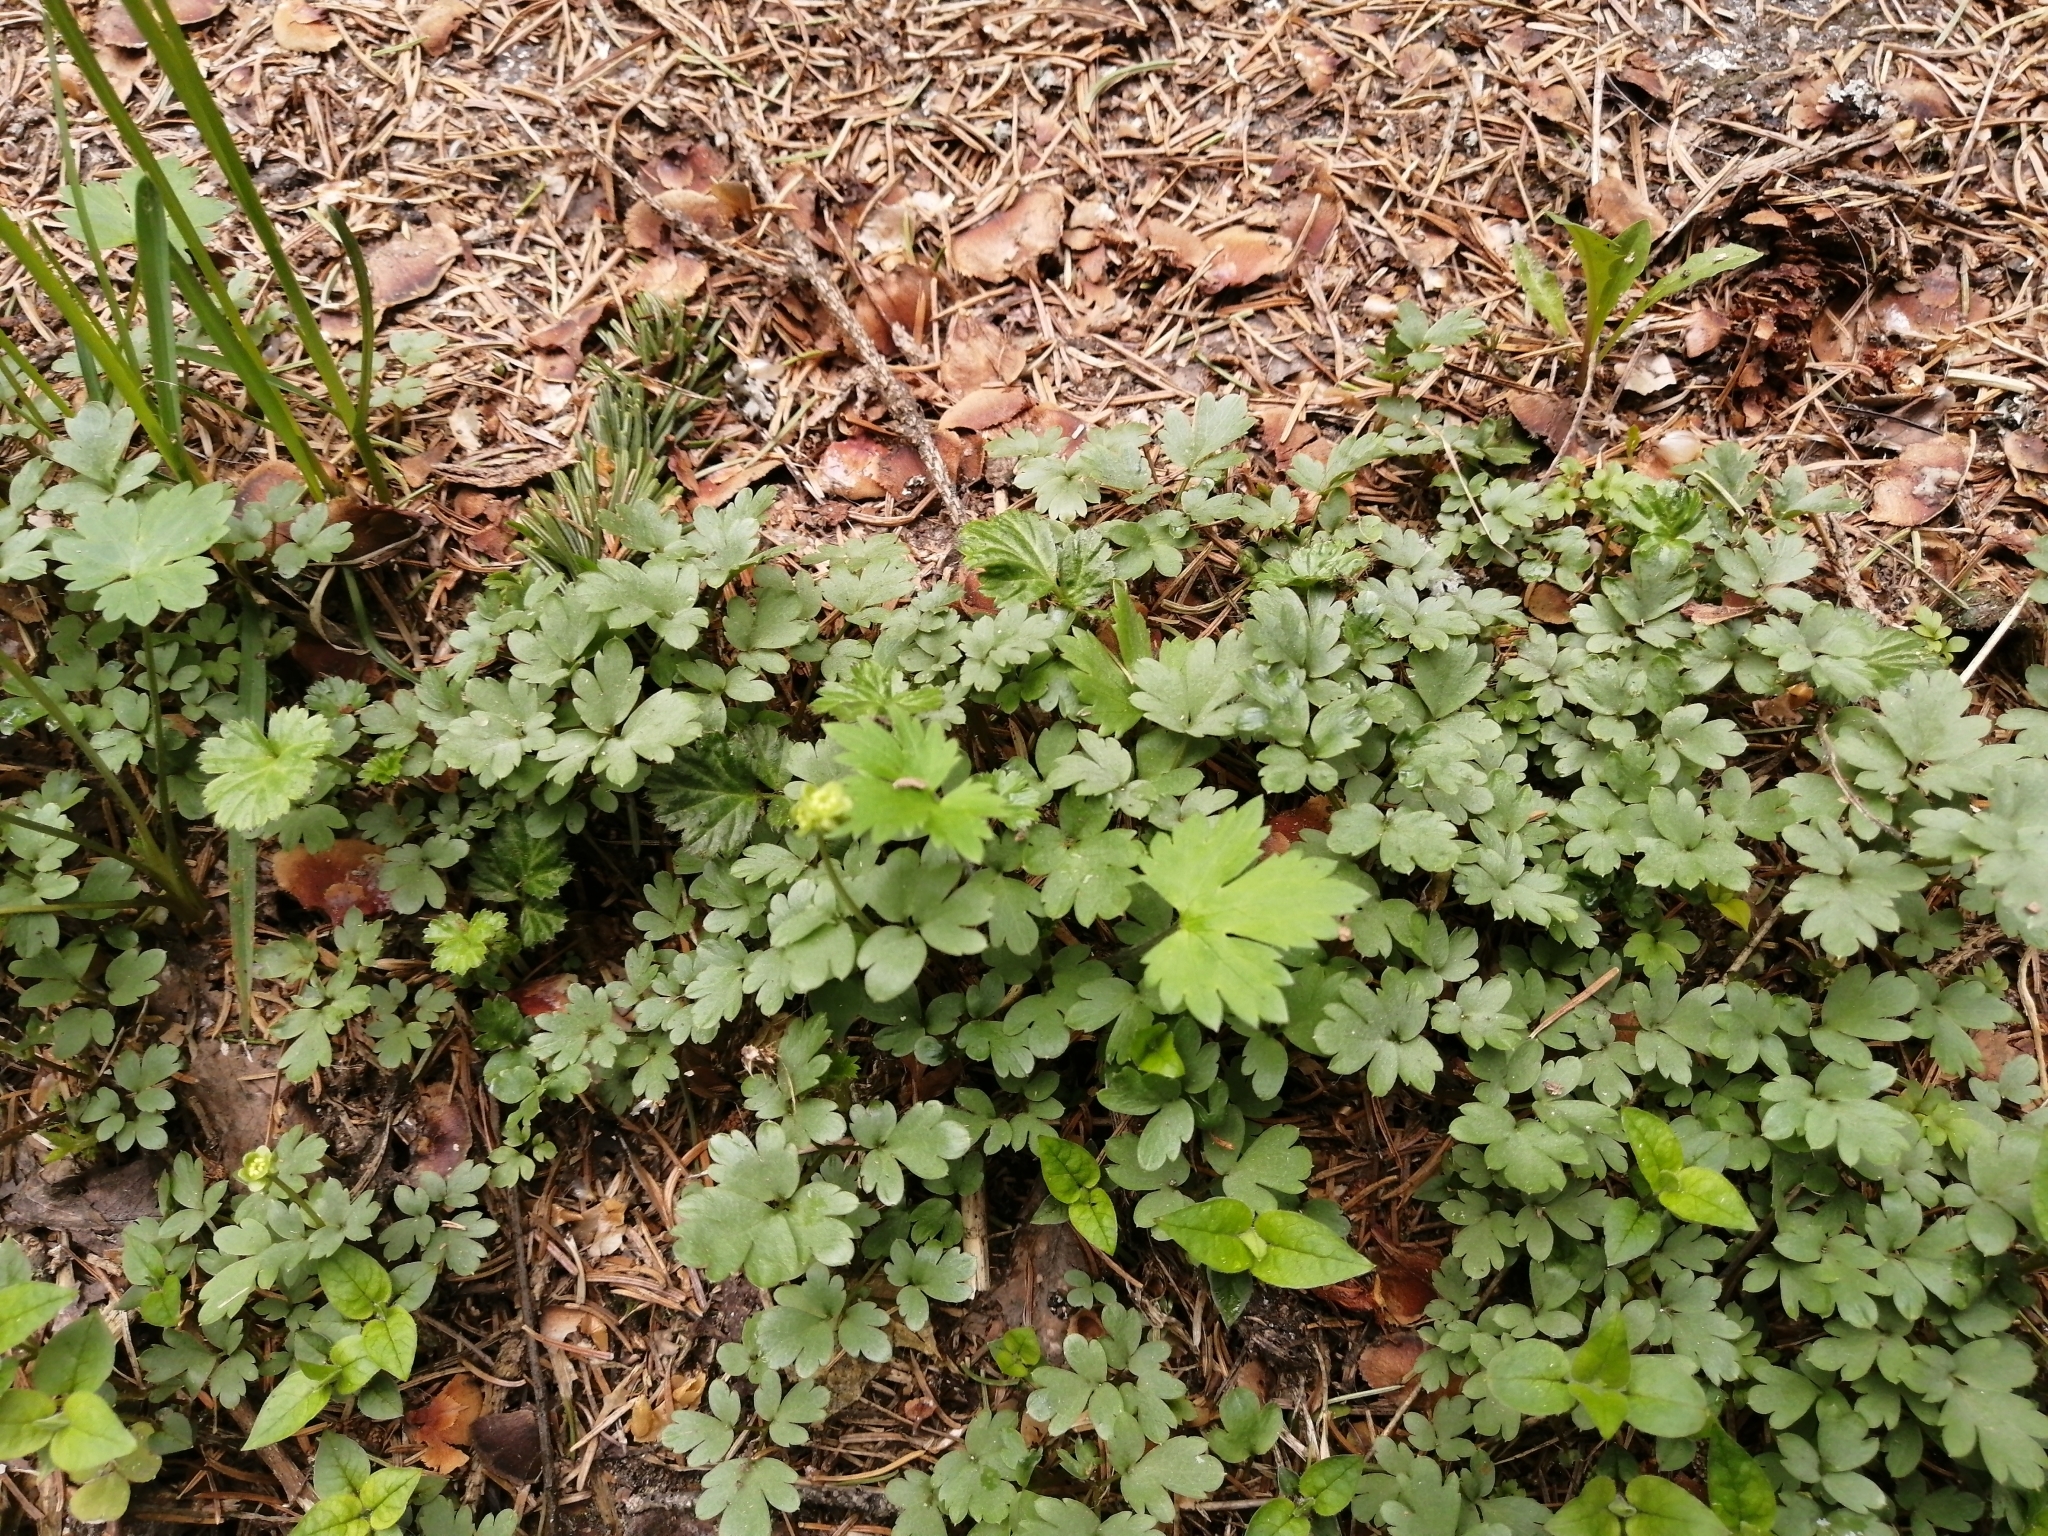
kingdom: Plantae
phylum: Tracheophyta
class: Magnoliopsida
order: Dipsacales
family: Viburnaceae
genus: Adoxa
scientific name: Adoxa moschatellina
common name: Moschatel
